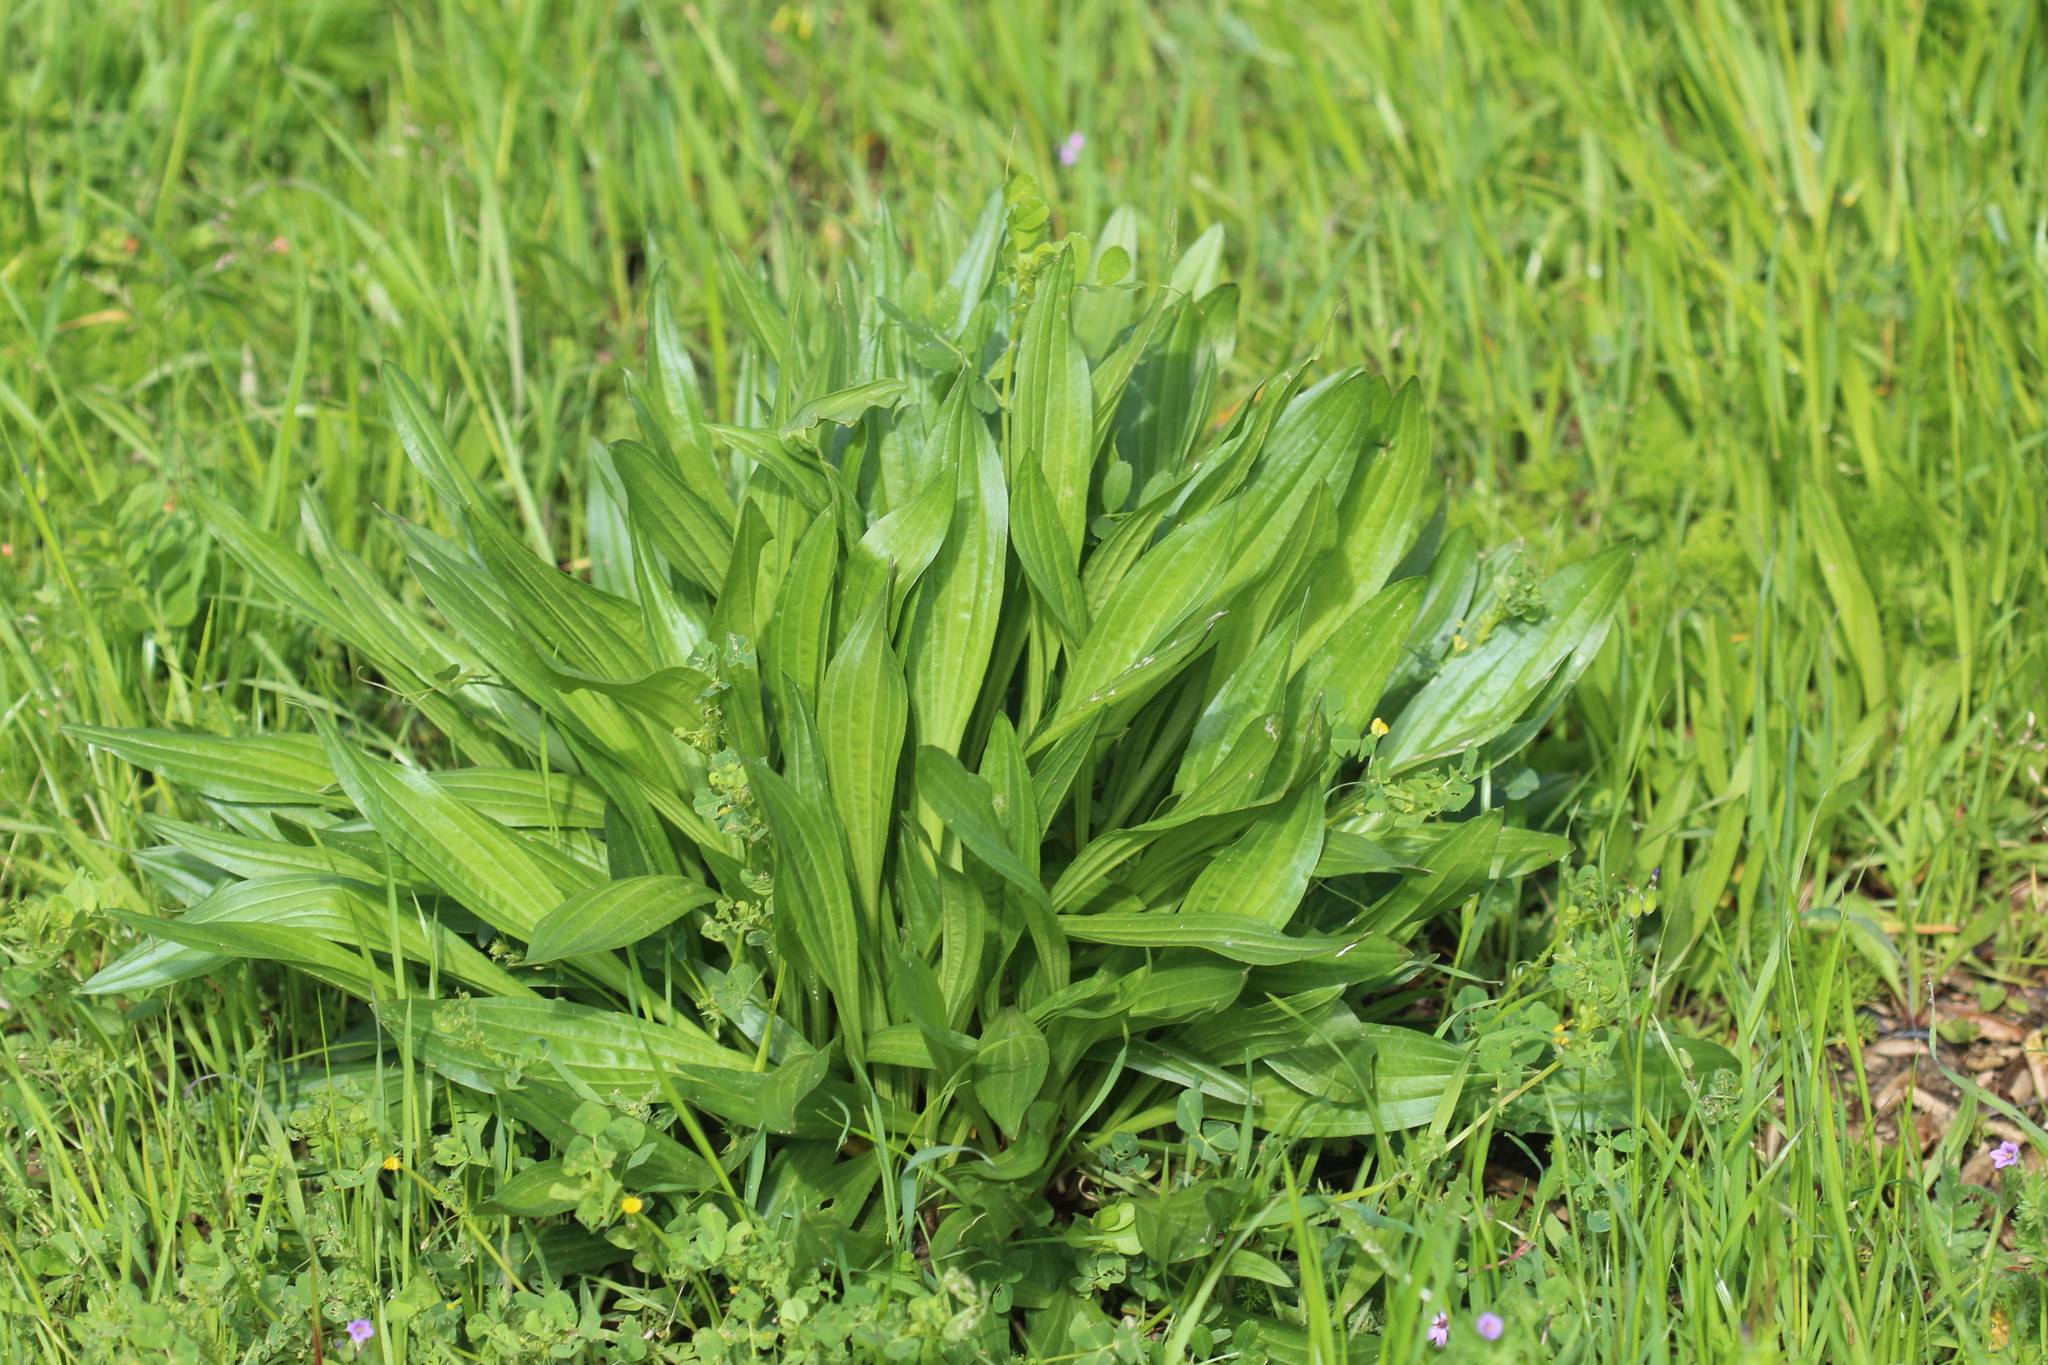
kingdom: Plantae
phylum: Tracheophyta
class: Magnoliopsida
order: Lamiales
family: Plantaginaceae
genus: Plantago
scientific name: Plantago lanceolata
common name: Ribwort plantain
